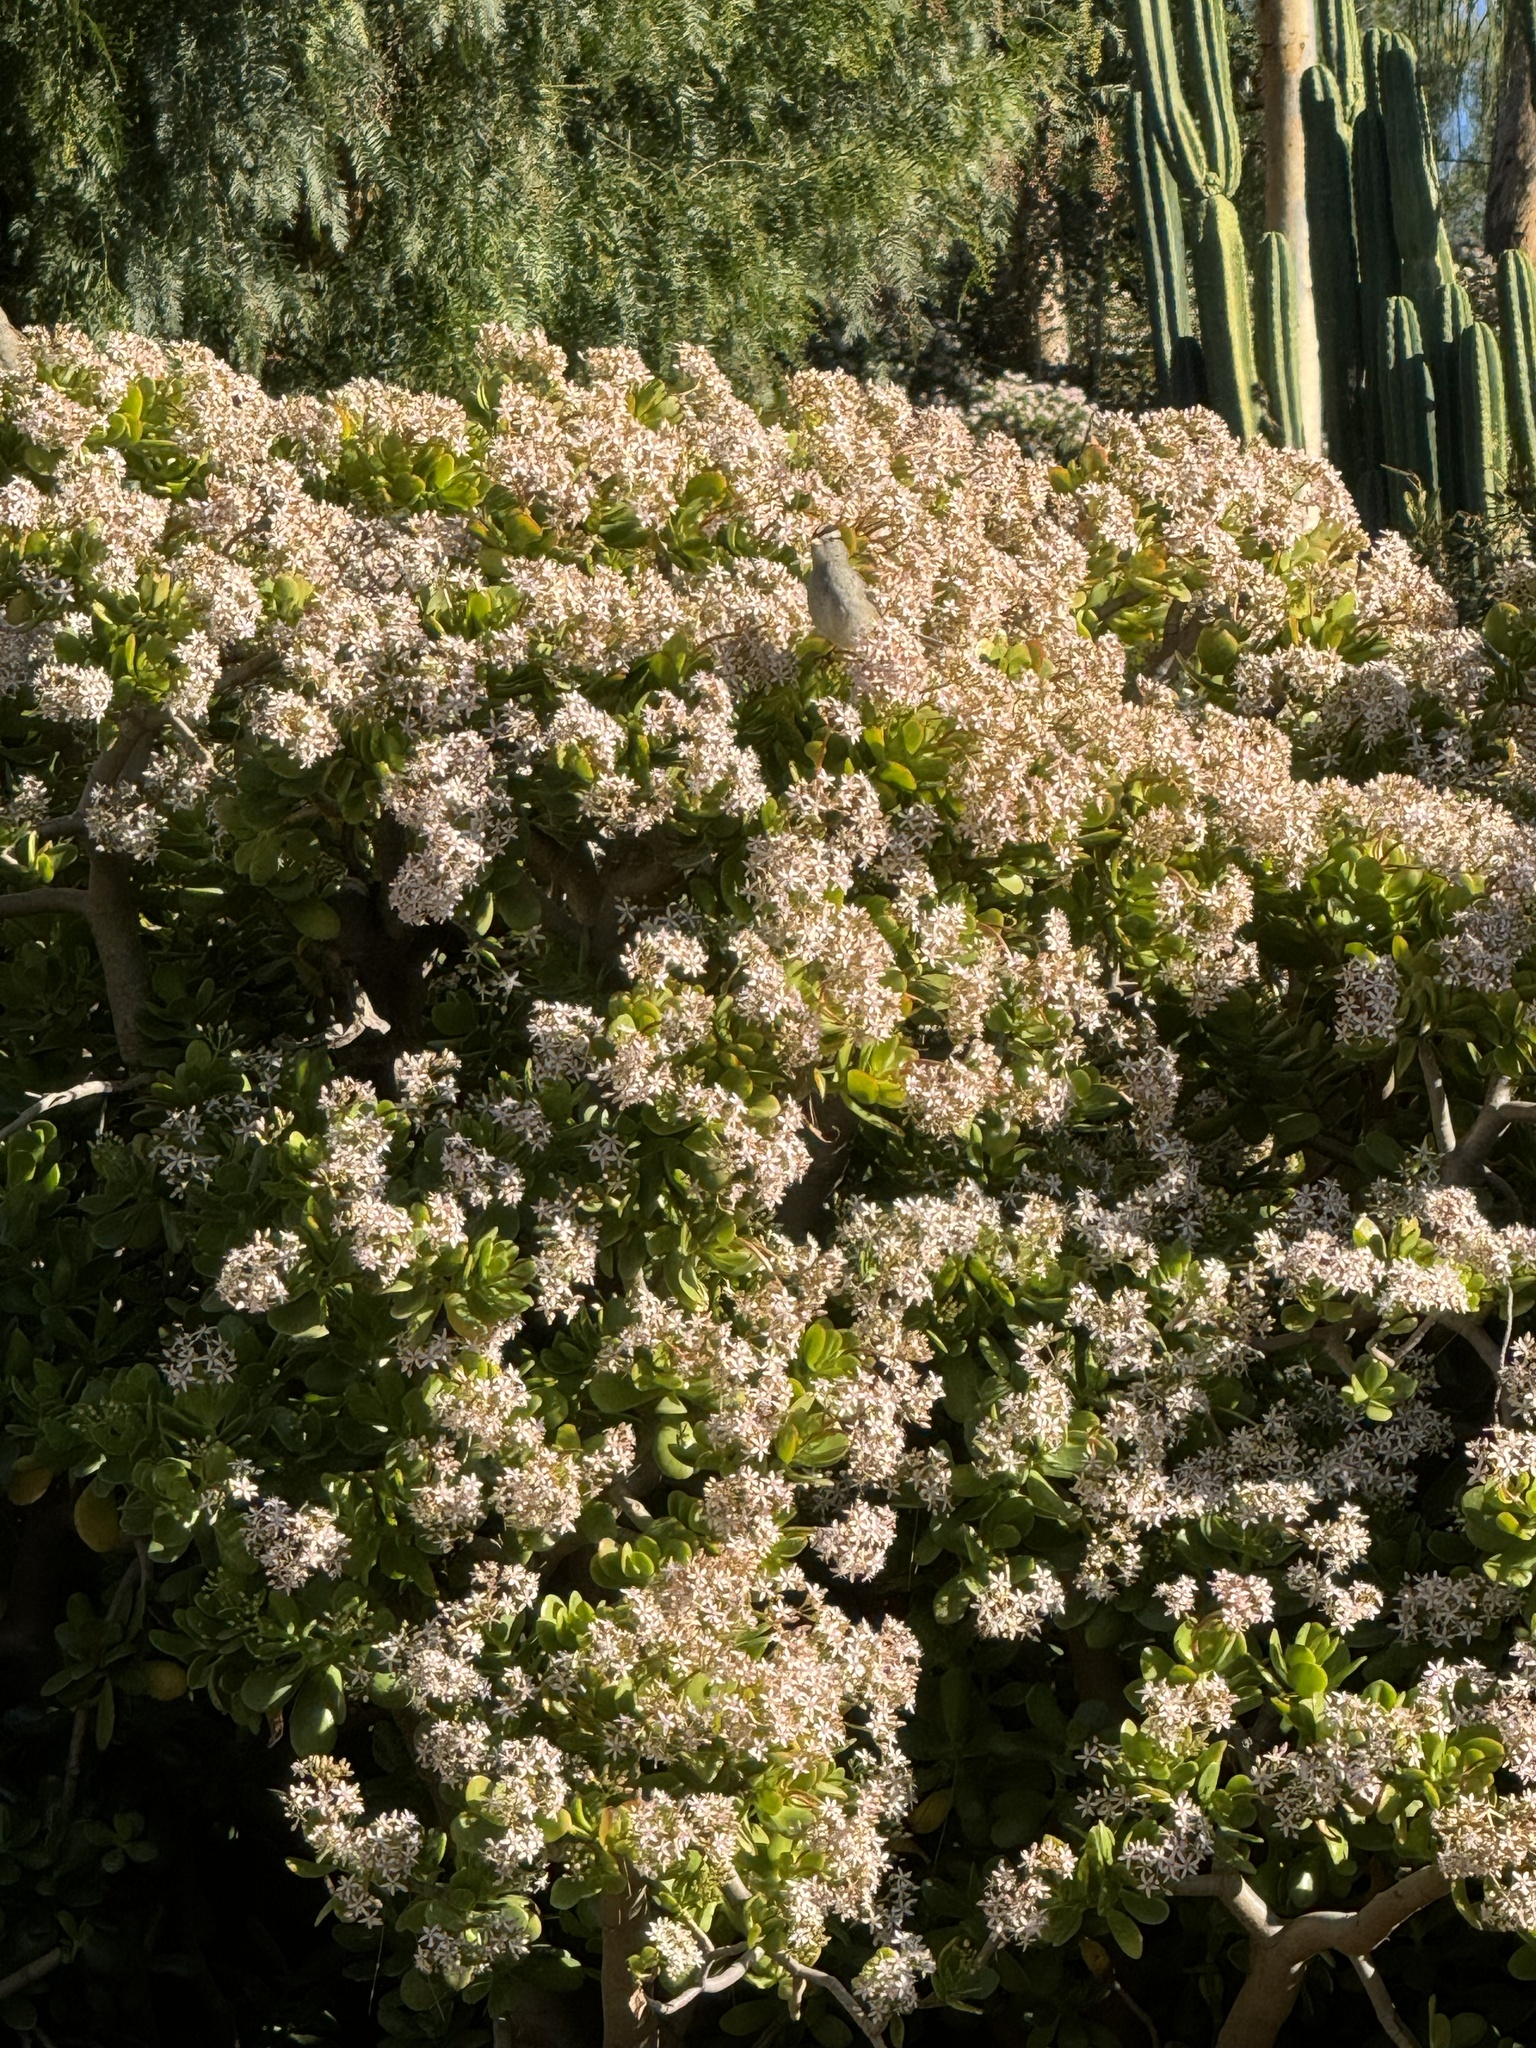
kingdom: Animalia
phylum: Chordata
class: Aves
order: Passeriformes
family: Passerellidae
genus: Zonotrichia
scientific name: Zonotrichia leucophrys
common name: White-crowned sparrow
